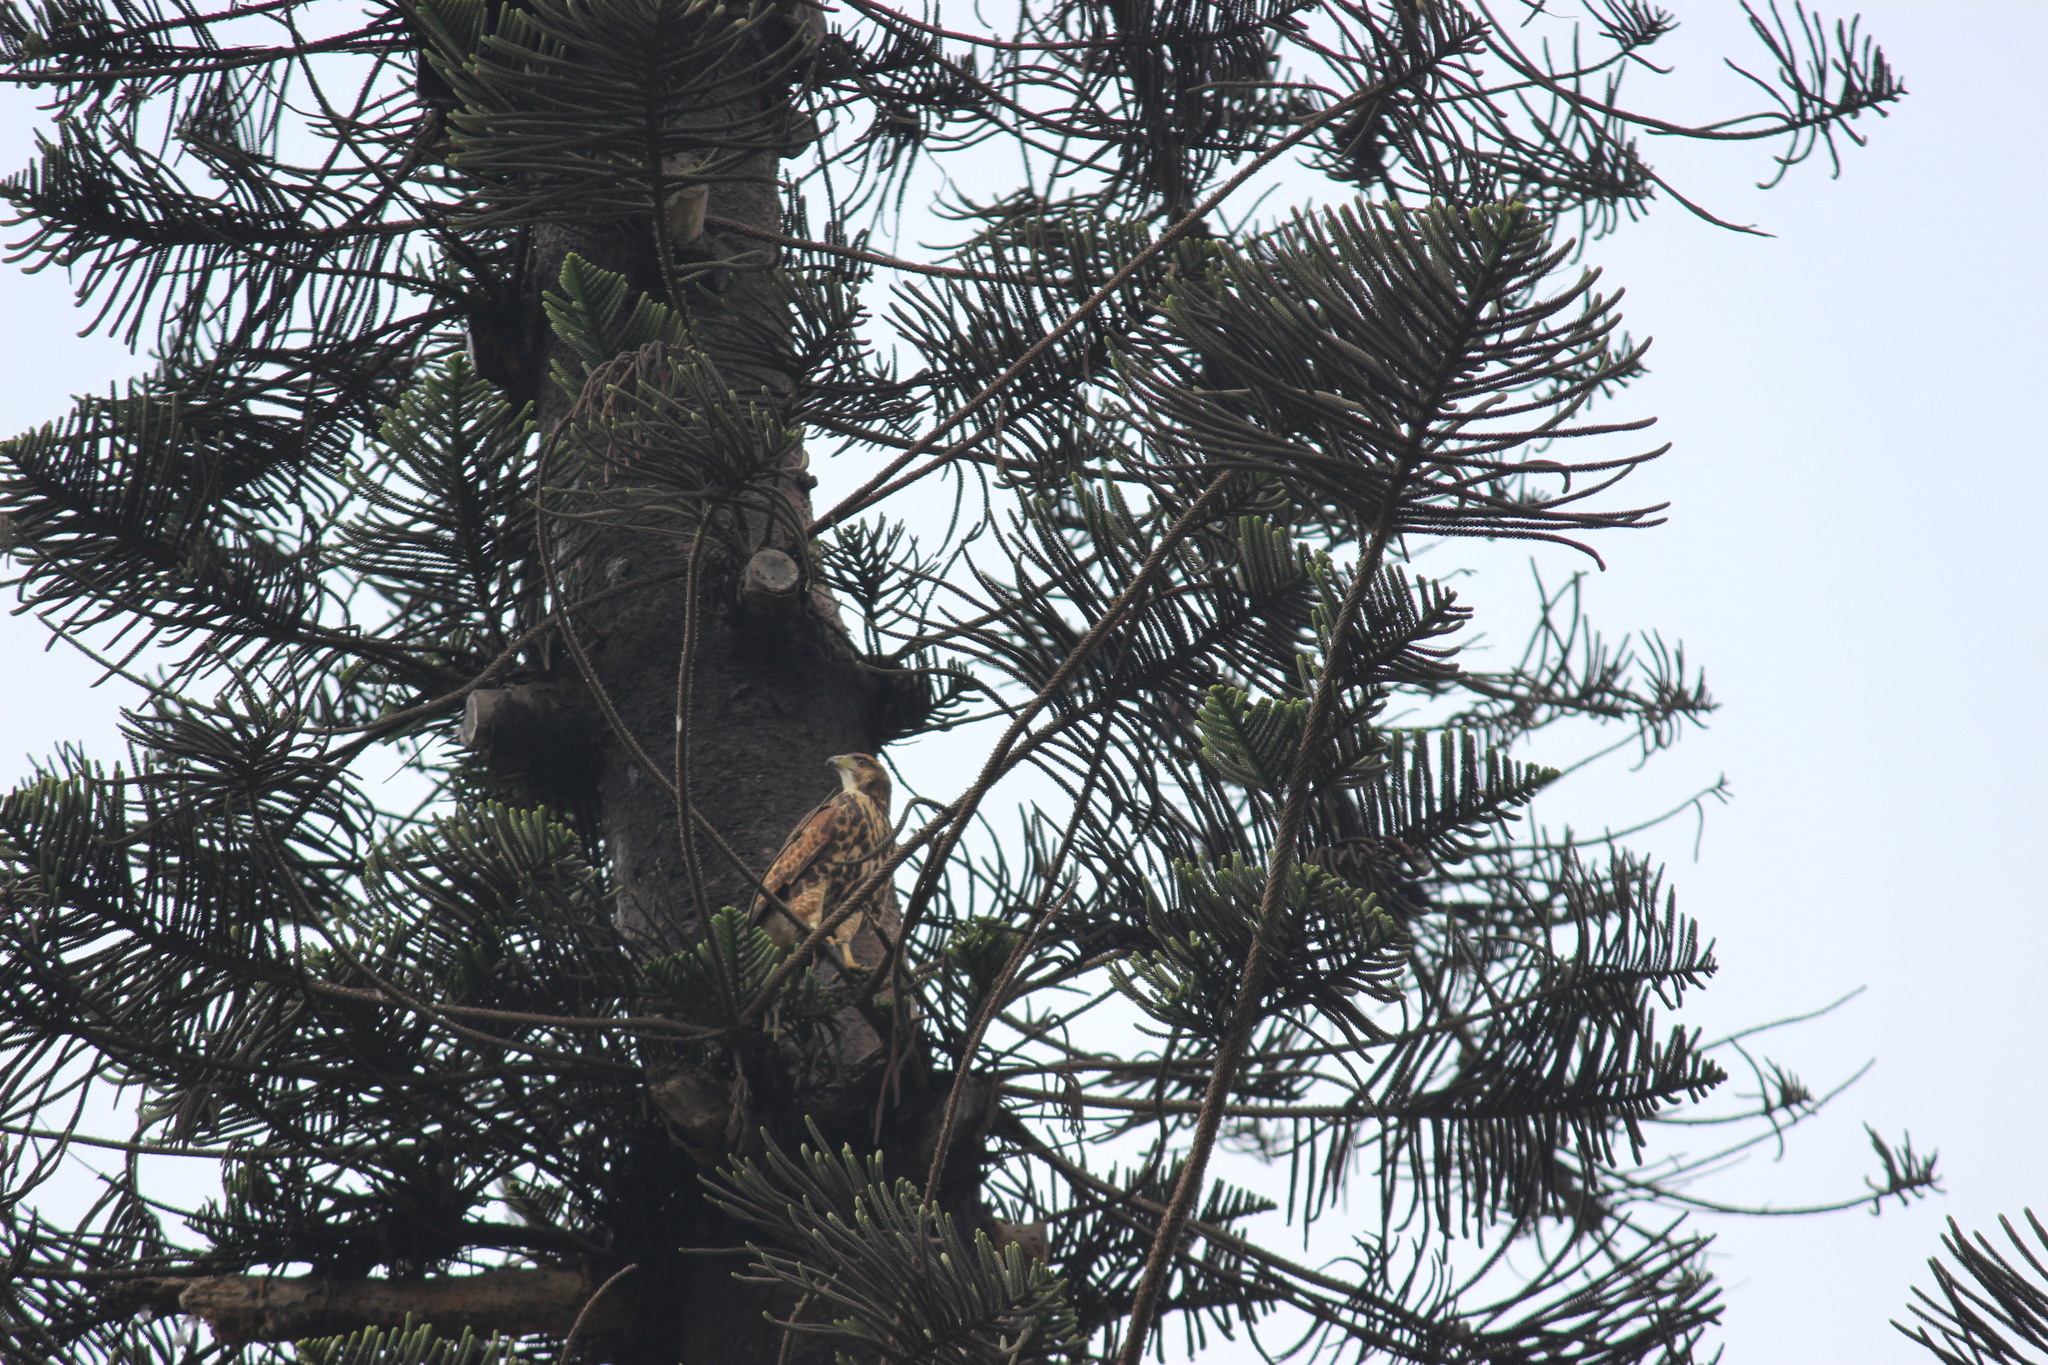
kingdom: Animalia
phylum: Chordata
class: Aves
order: Accipitriformes
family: Accipitridae
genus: Parabuteo
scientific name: Parabuteo unicinctus
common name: Harris's hawk
